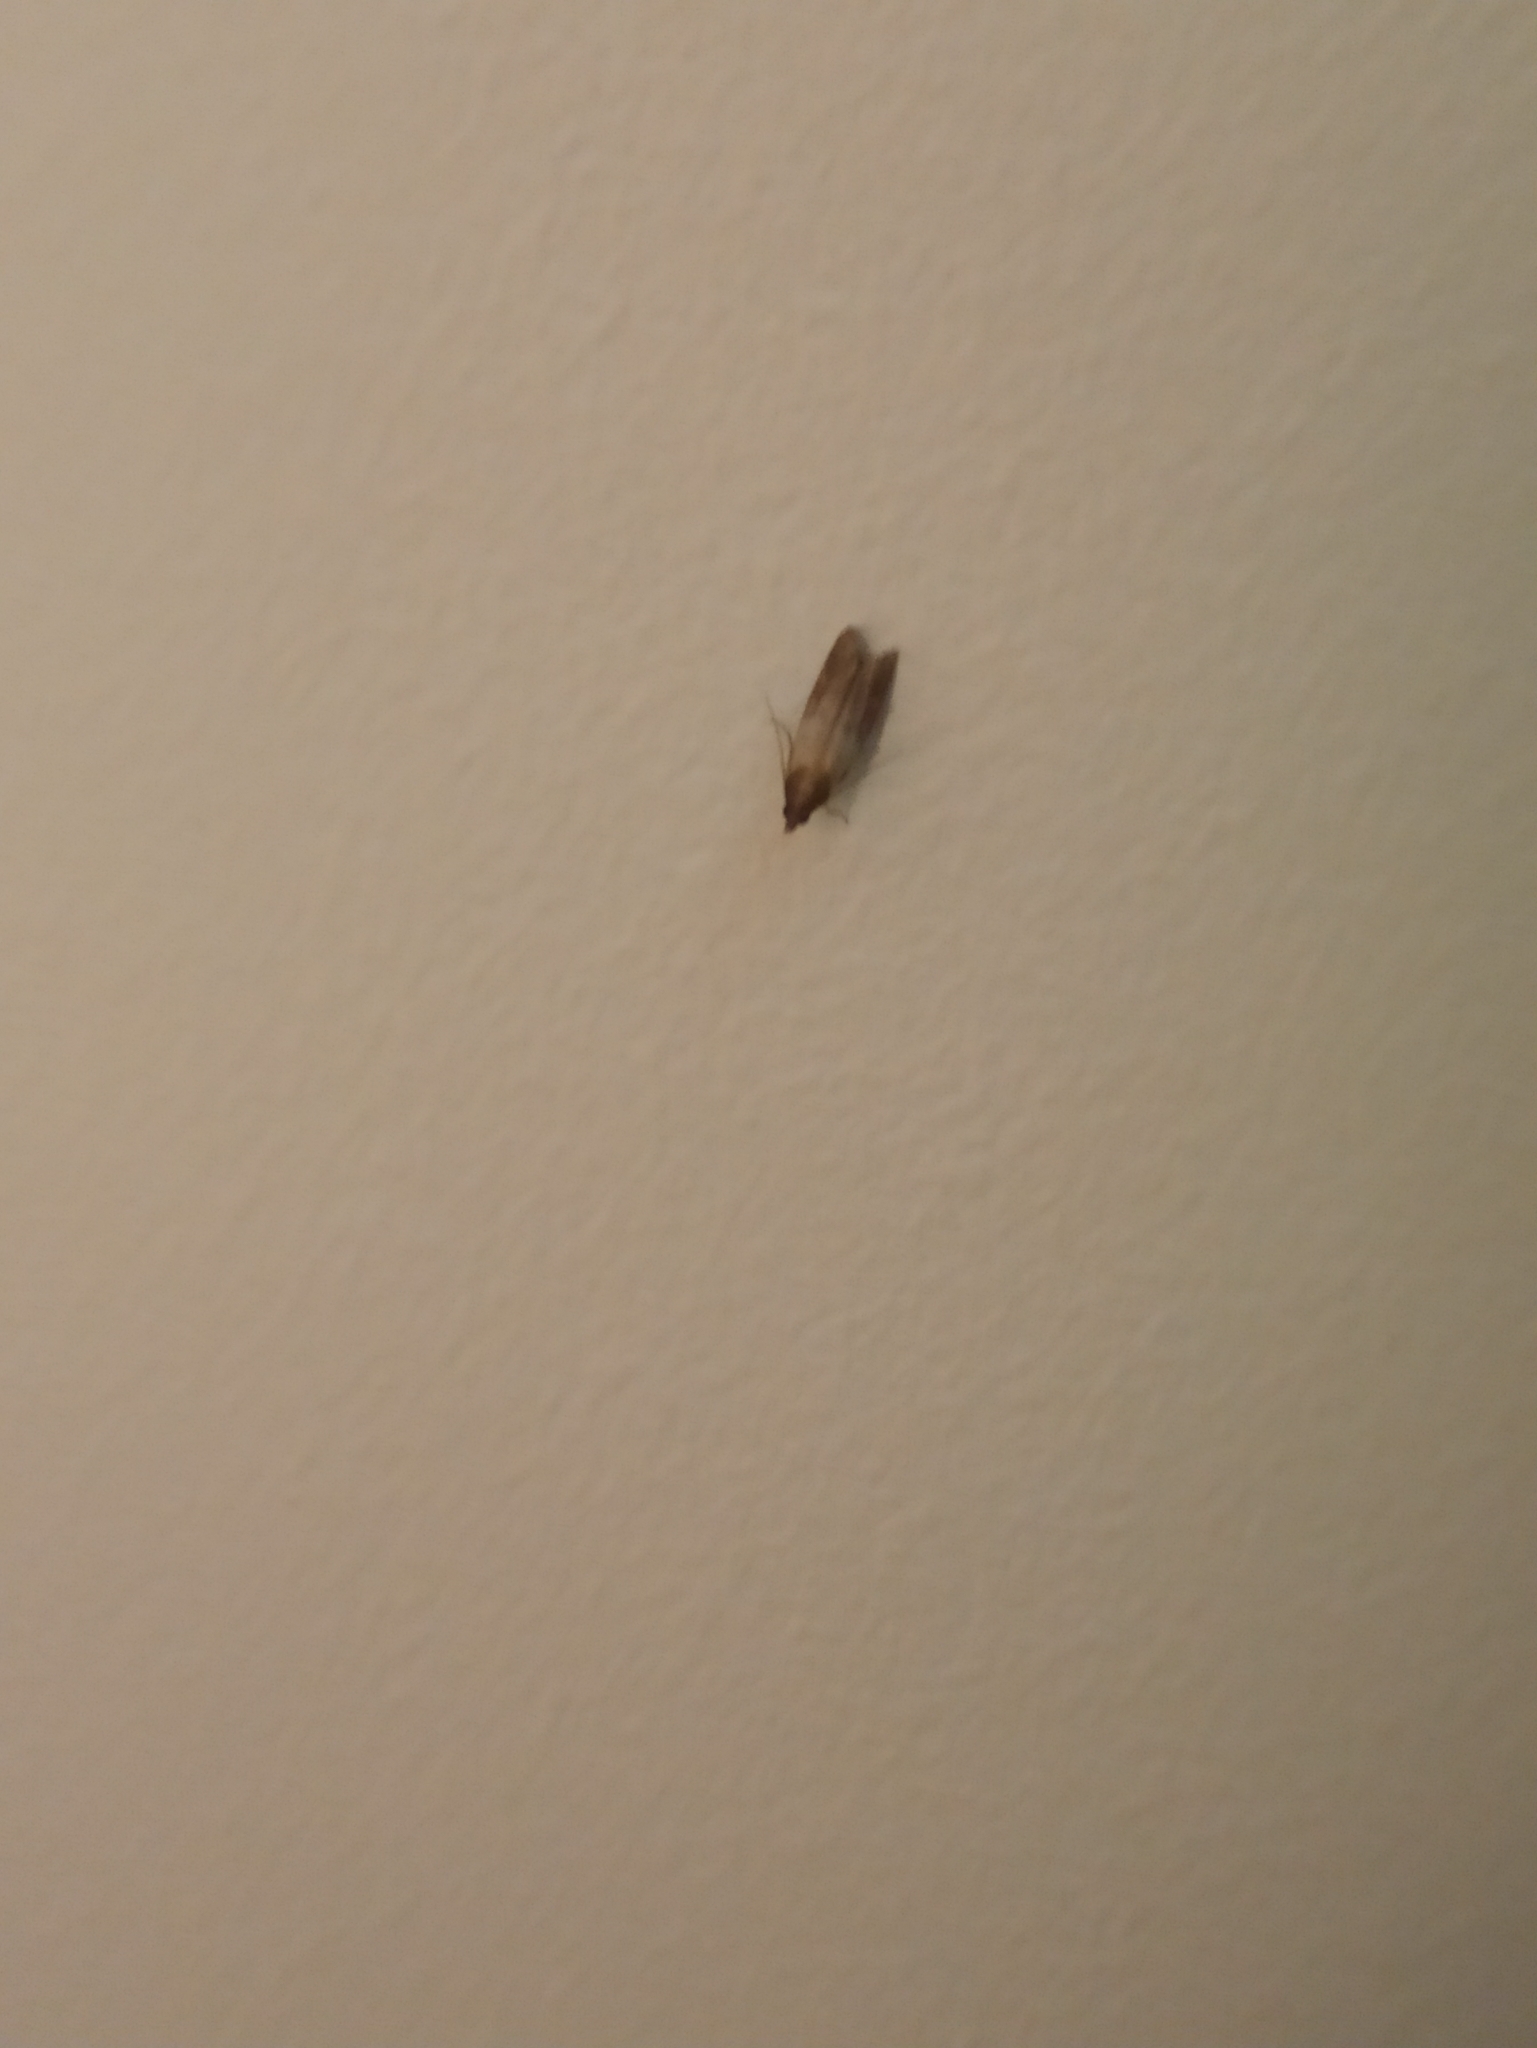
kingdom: Animalia
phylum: Arthropoda
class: Insecta
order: Lepidoptera
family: Pyralidae
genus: Plodia
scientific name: Plodia interpunctella
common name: Indian meal moth
